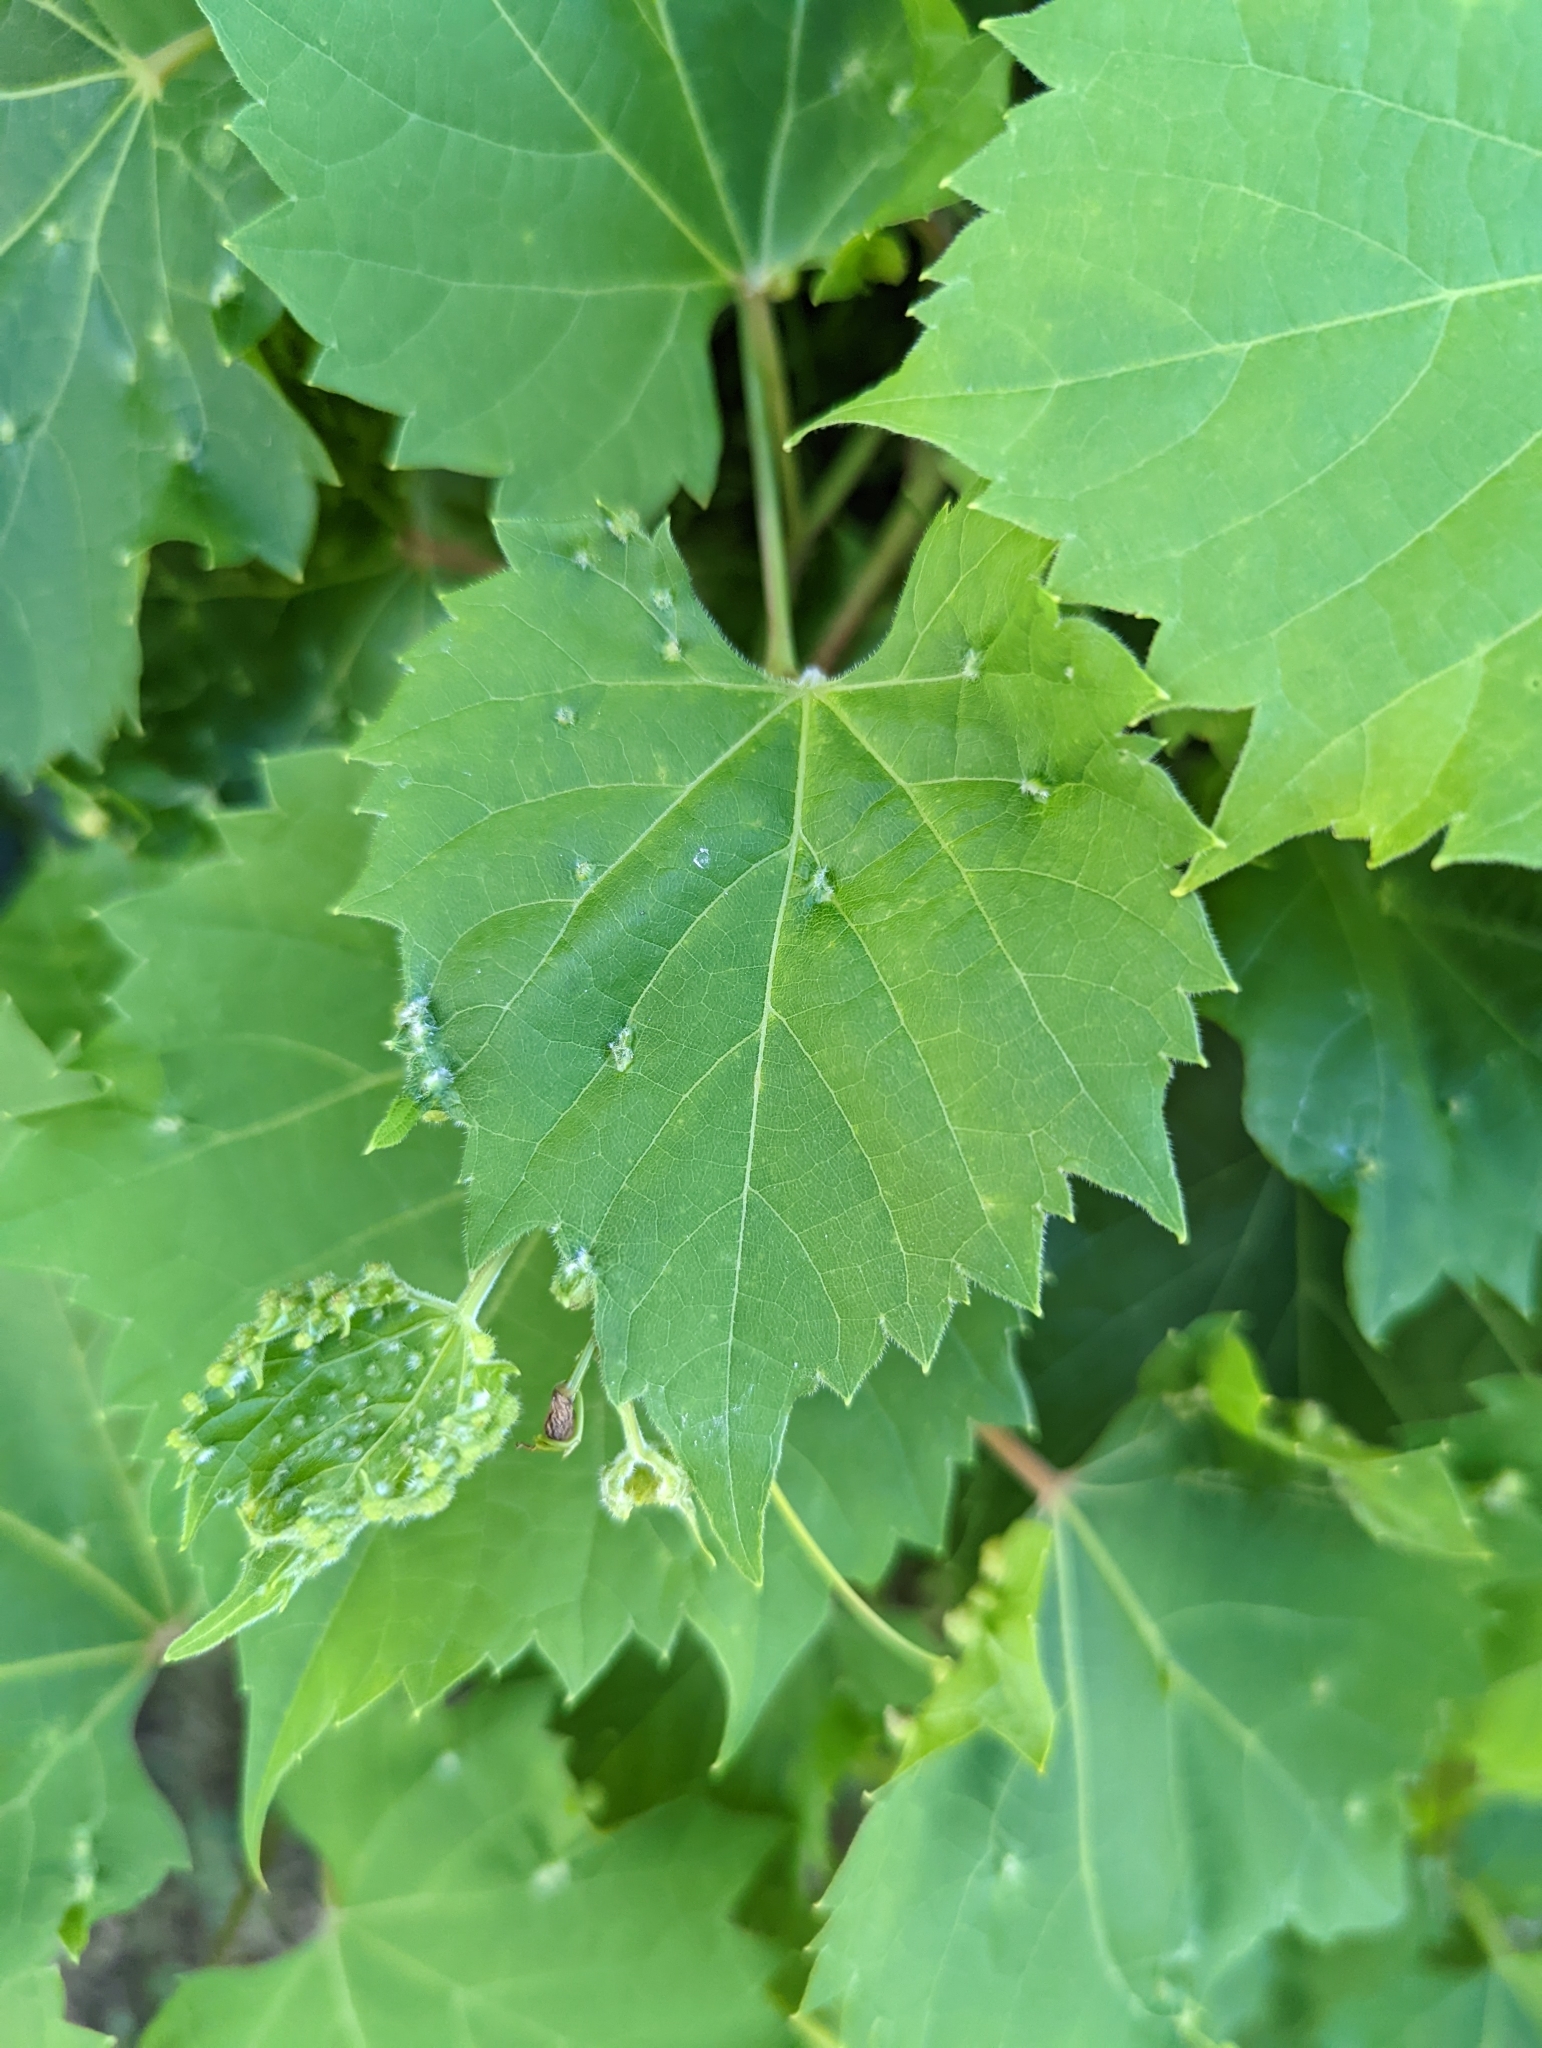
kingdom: Animalia
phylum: Arthropoda
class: Insecta
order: Hemiptera
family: Phylloxeridae
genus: Daktulosphaira
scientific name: Daktulosphaira vitifoliae
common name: Grape phylloxera
